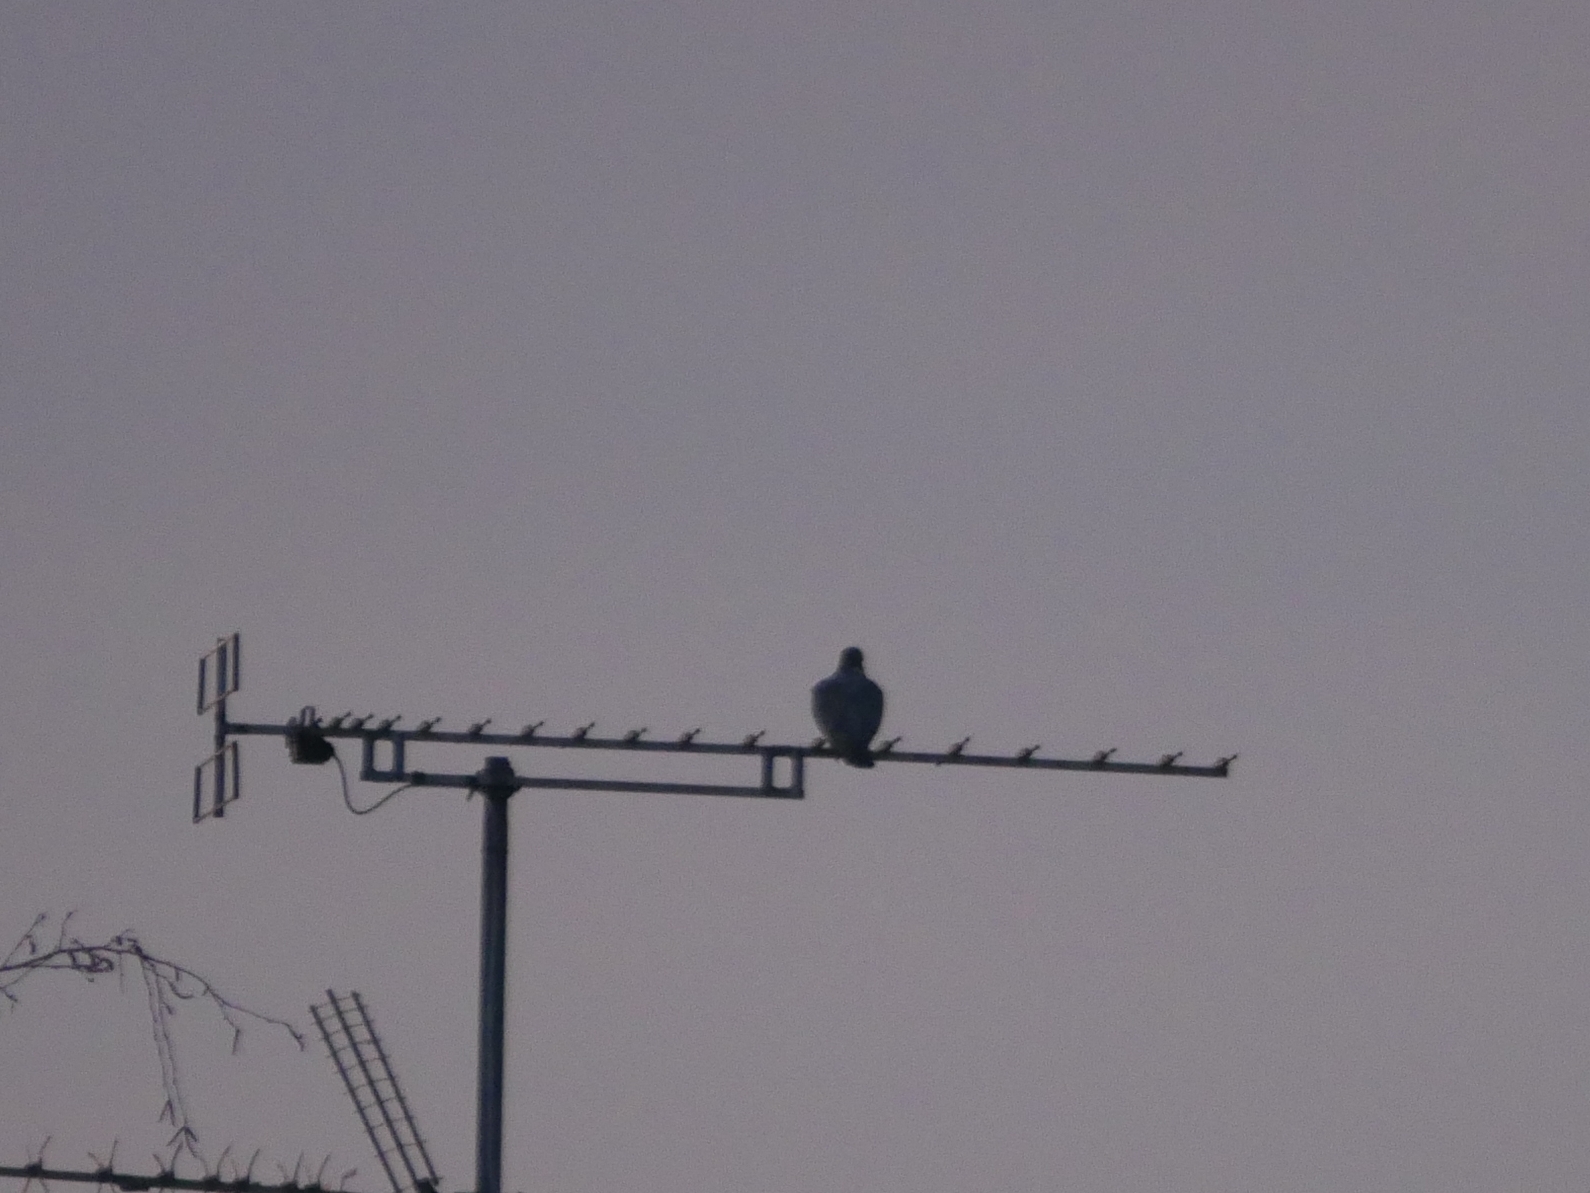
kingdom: Animalia
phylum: Chordata
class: Aves
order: Columbiformes
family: Columbidae
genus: Columba
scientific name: Columba palumbus
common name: Common wood pigeon
